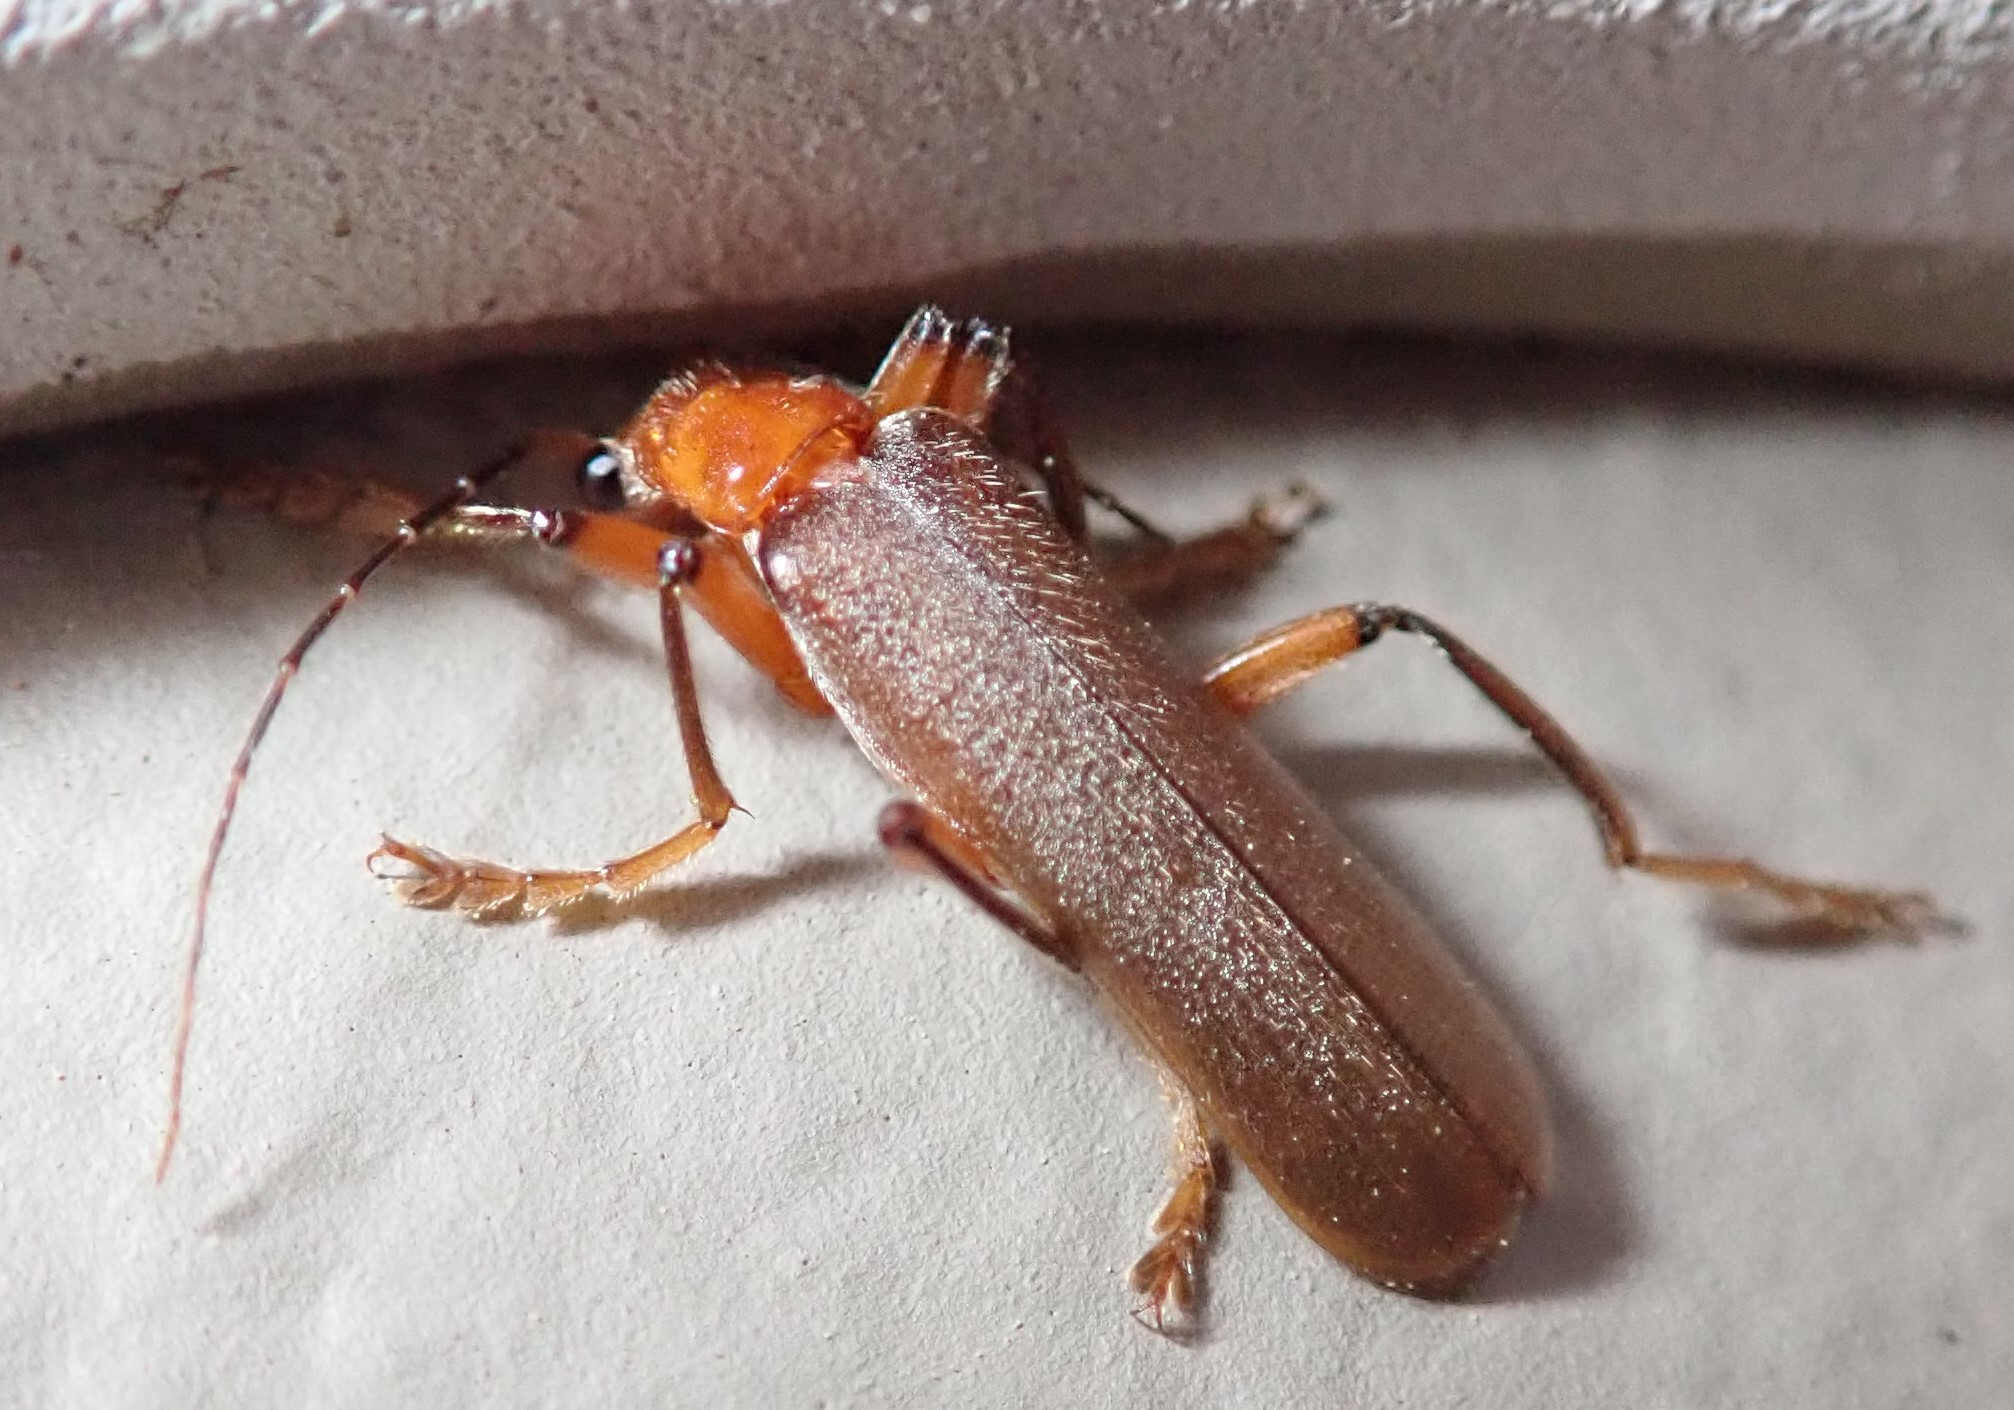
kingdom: Animalia
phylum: Arthropoda
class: Insecta
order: Coleoptera
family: Cantharidae
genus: Pacificanthia
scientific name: Pacificanthia consors
